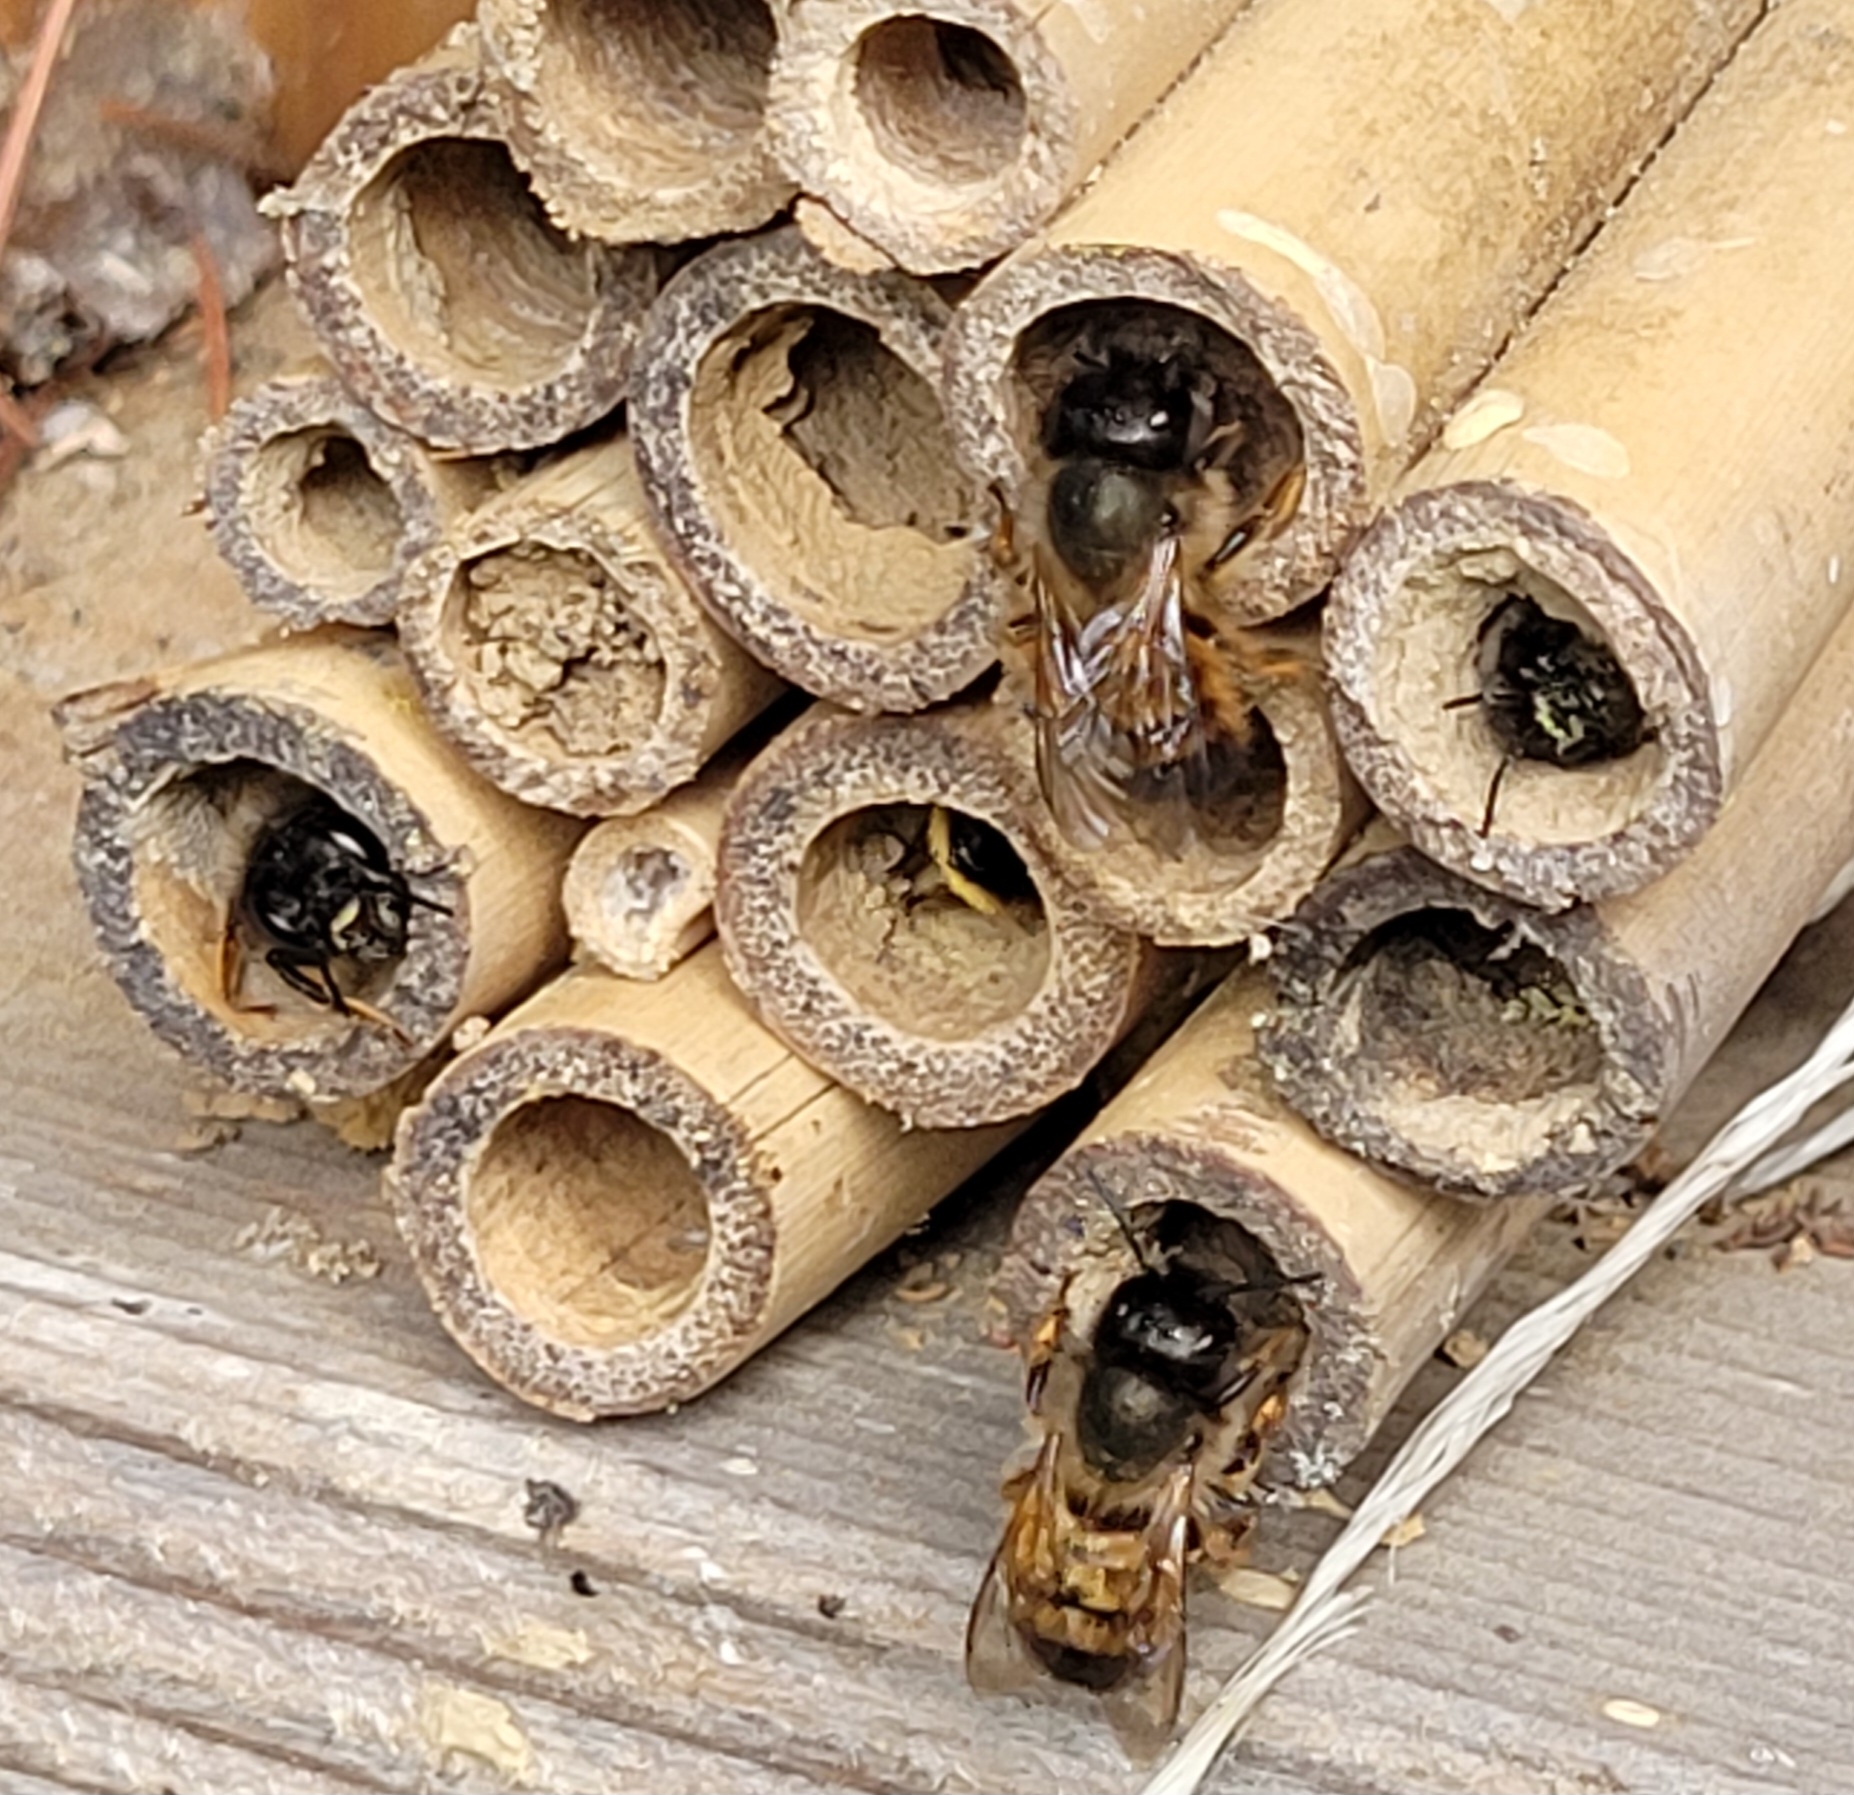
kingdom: Animalia
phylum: Arthropoda
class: Insecta
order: Hymenoptera
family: Megachilidae
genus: Osmia
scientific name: Osmia bicornis
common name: Red mason bee
